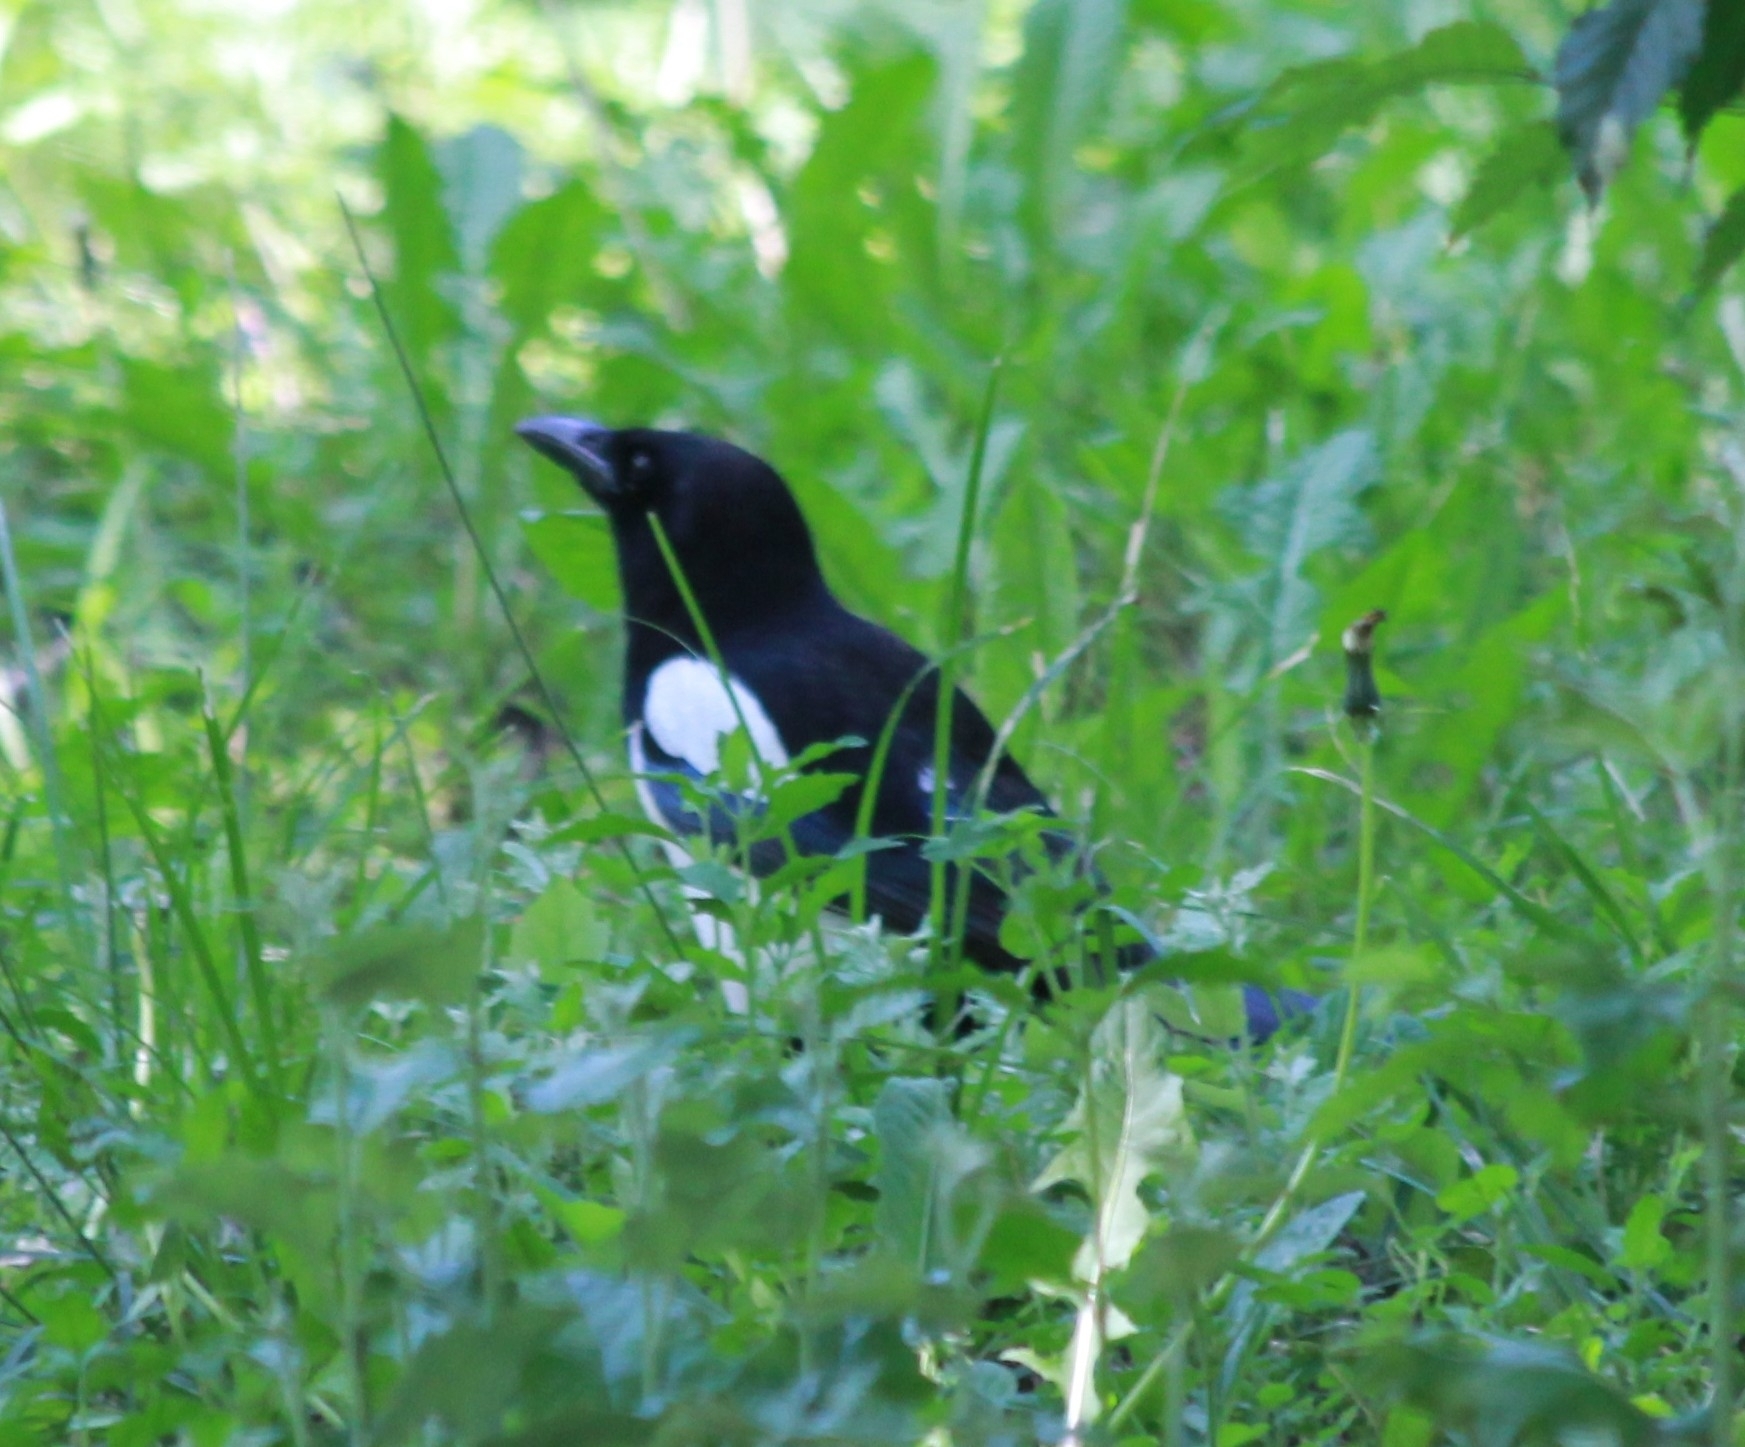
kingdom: Animalia
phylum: Chordata
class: Aves
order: Passeriformes
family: Corvidae
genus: Pica
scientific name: Pica pica
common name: Eurasian magpie
